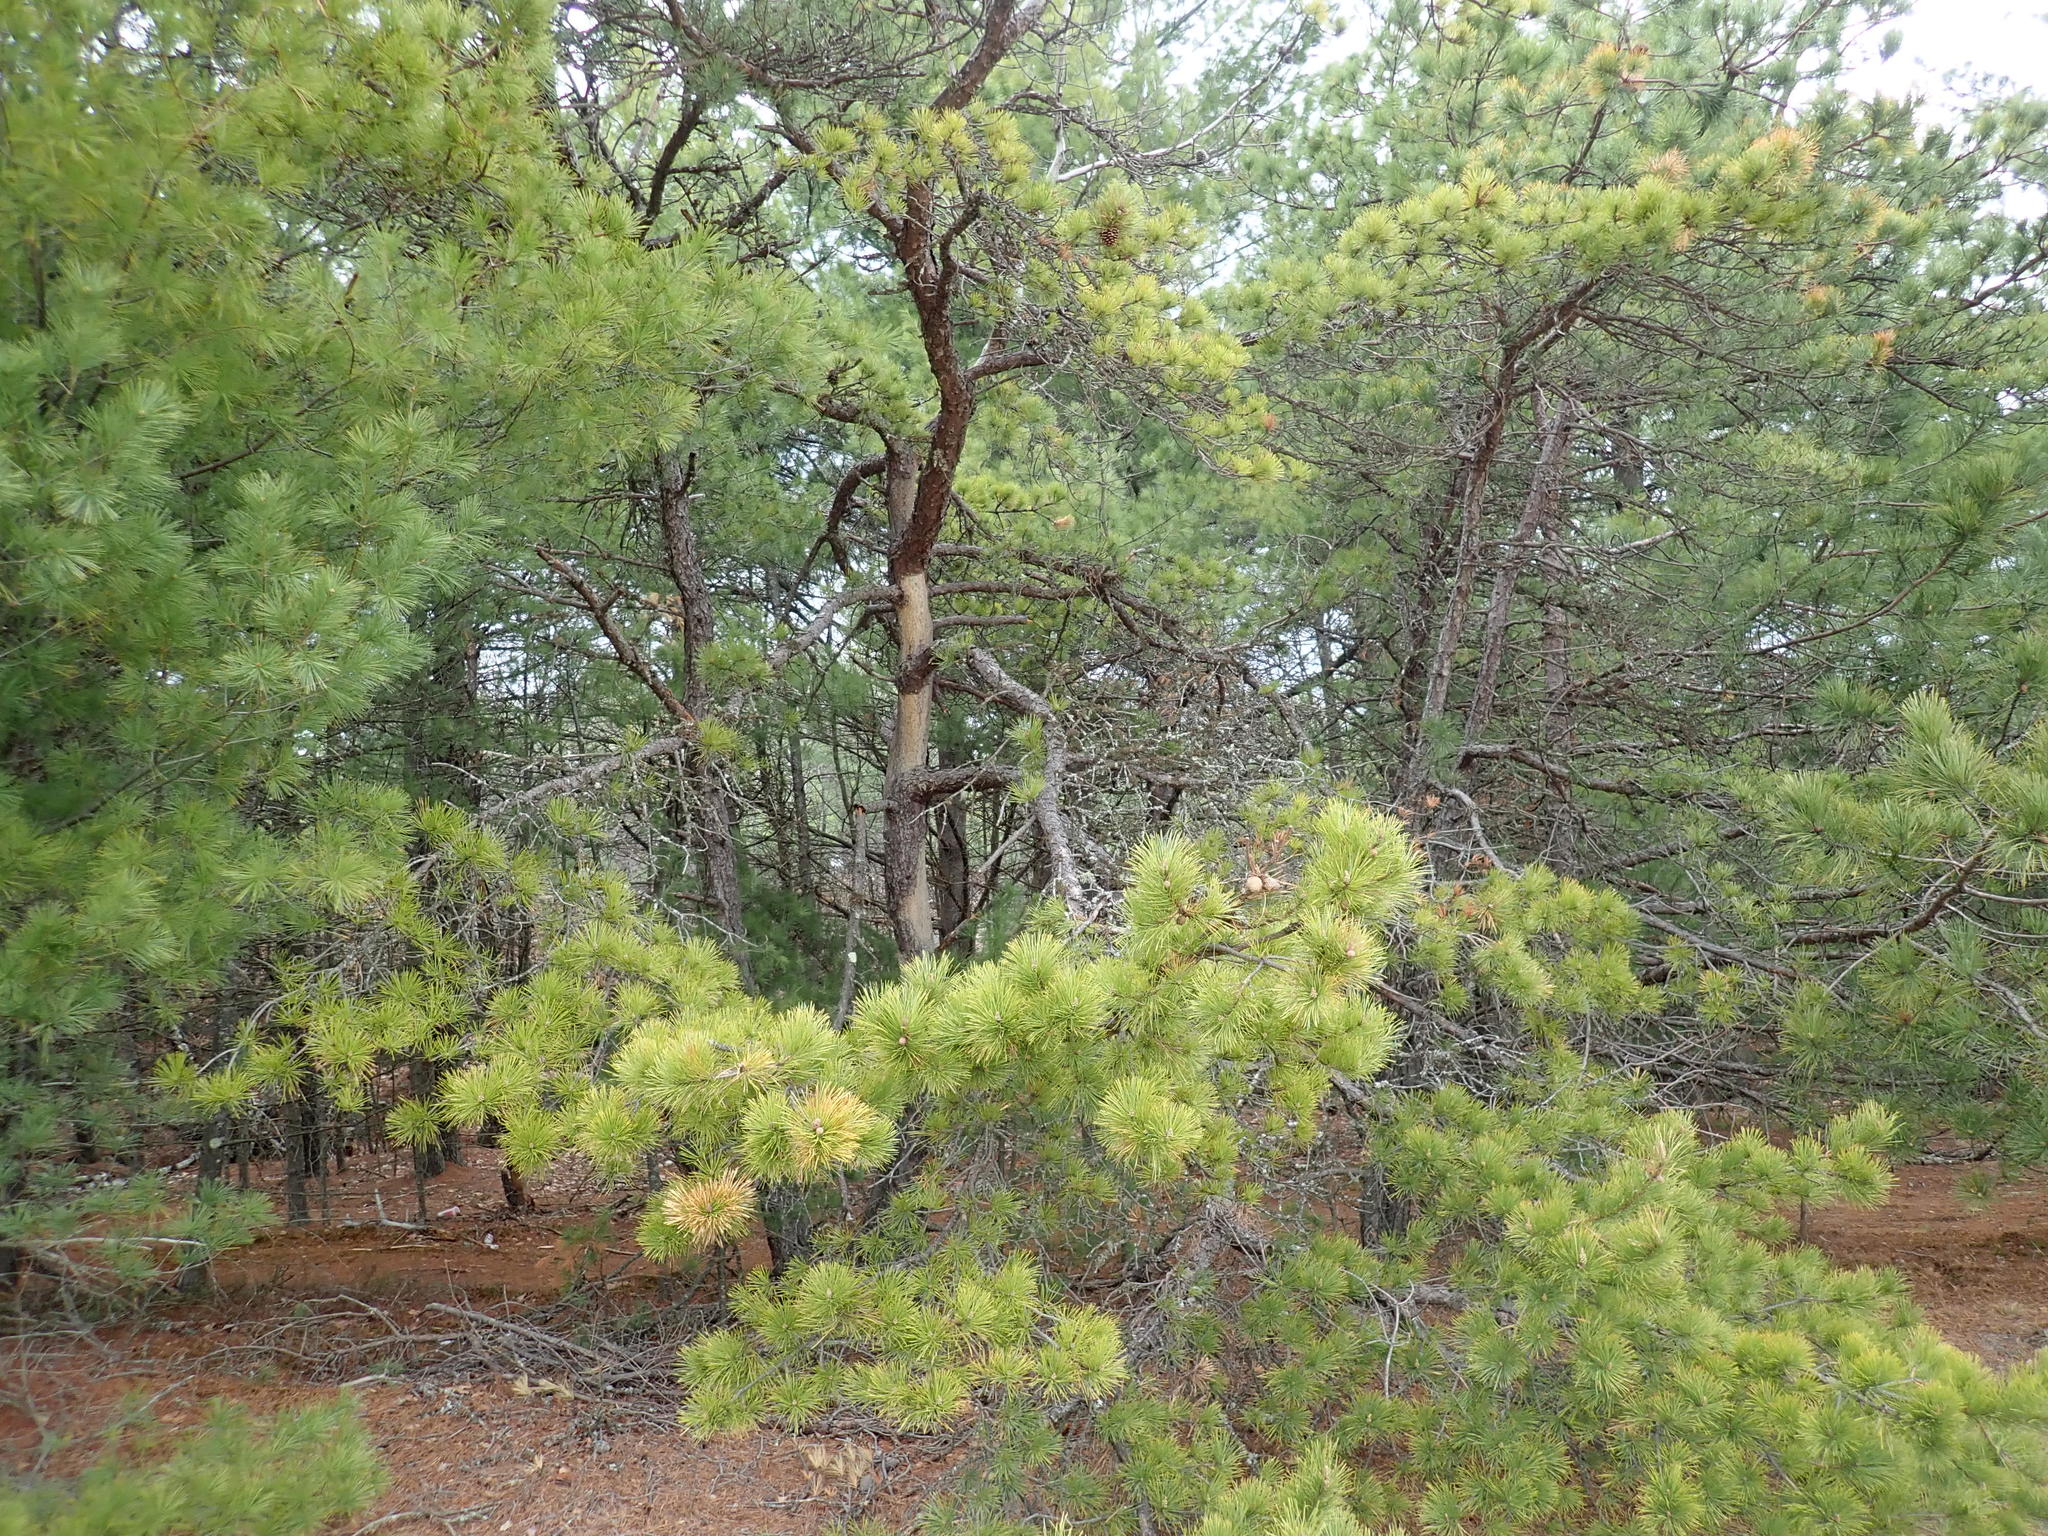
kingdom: Plantae
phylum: Tracheophyta
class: Pinopsida
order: Pinales
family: Pinaceae
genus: Pinus
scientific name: Pinus rigida
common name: Pitch pine
